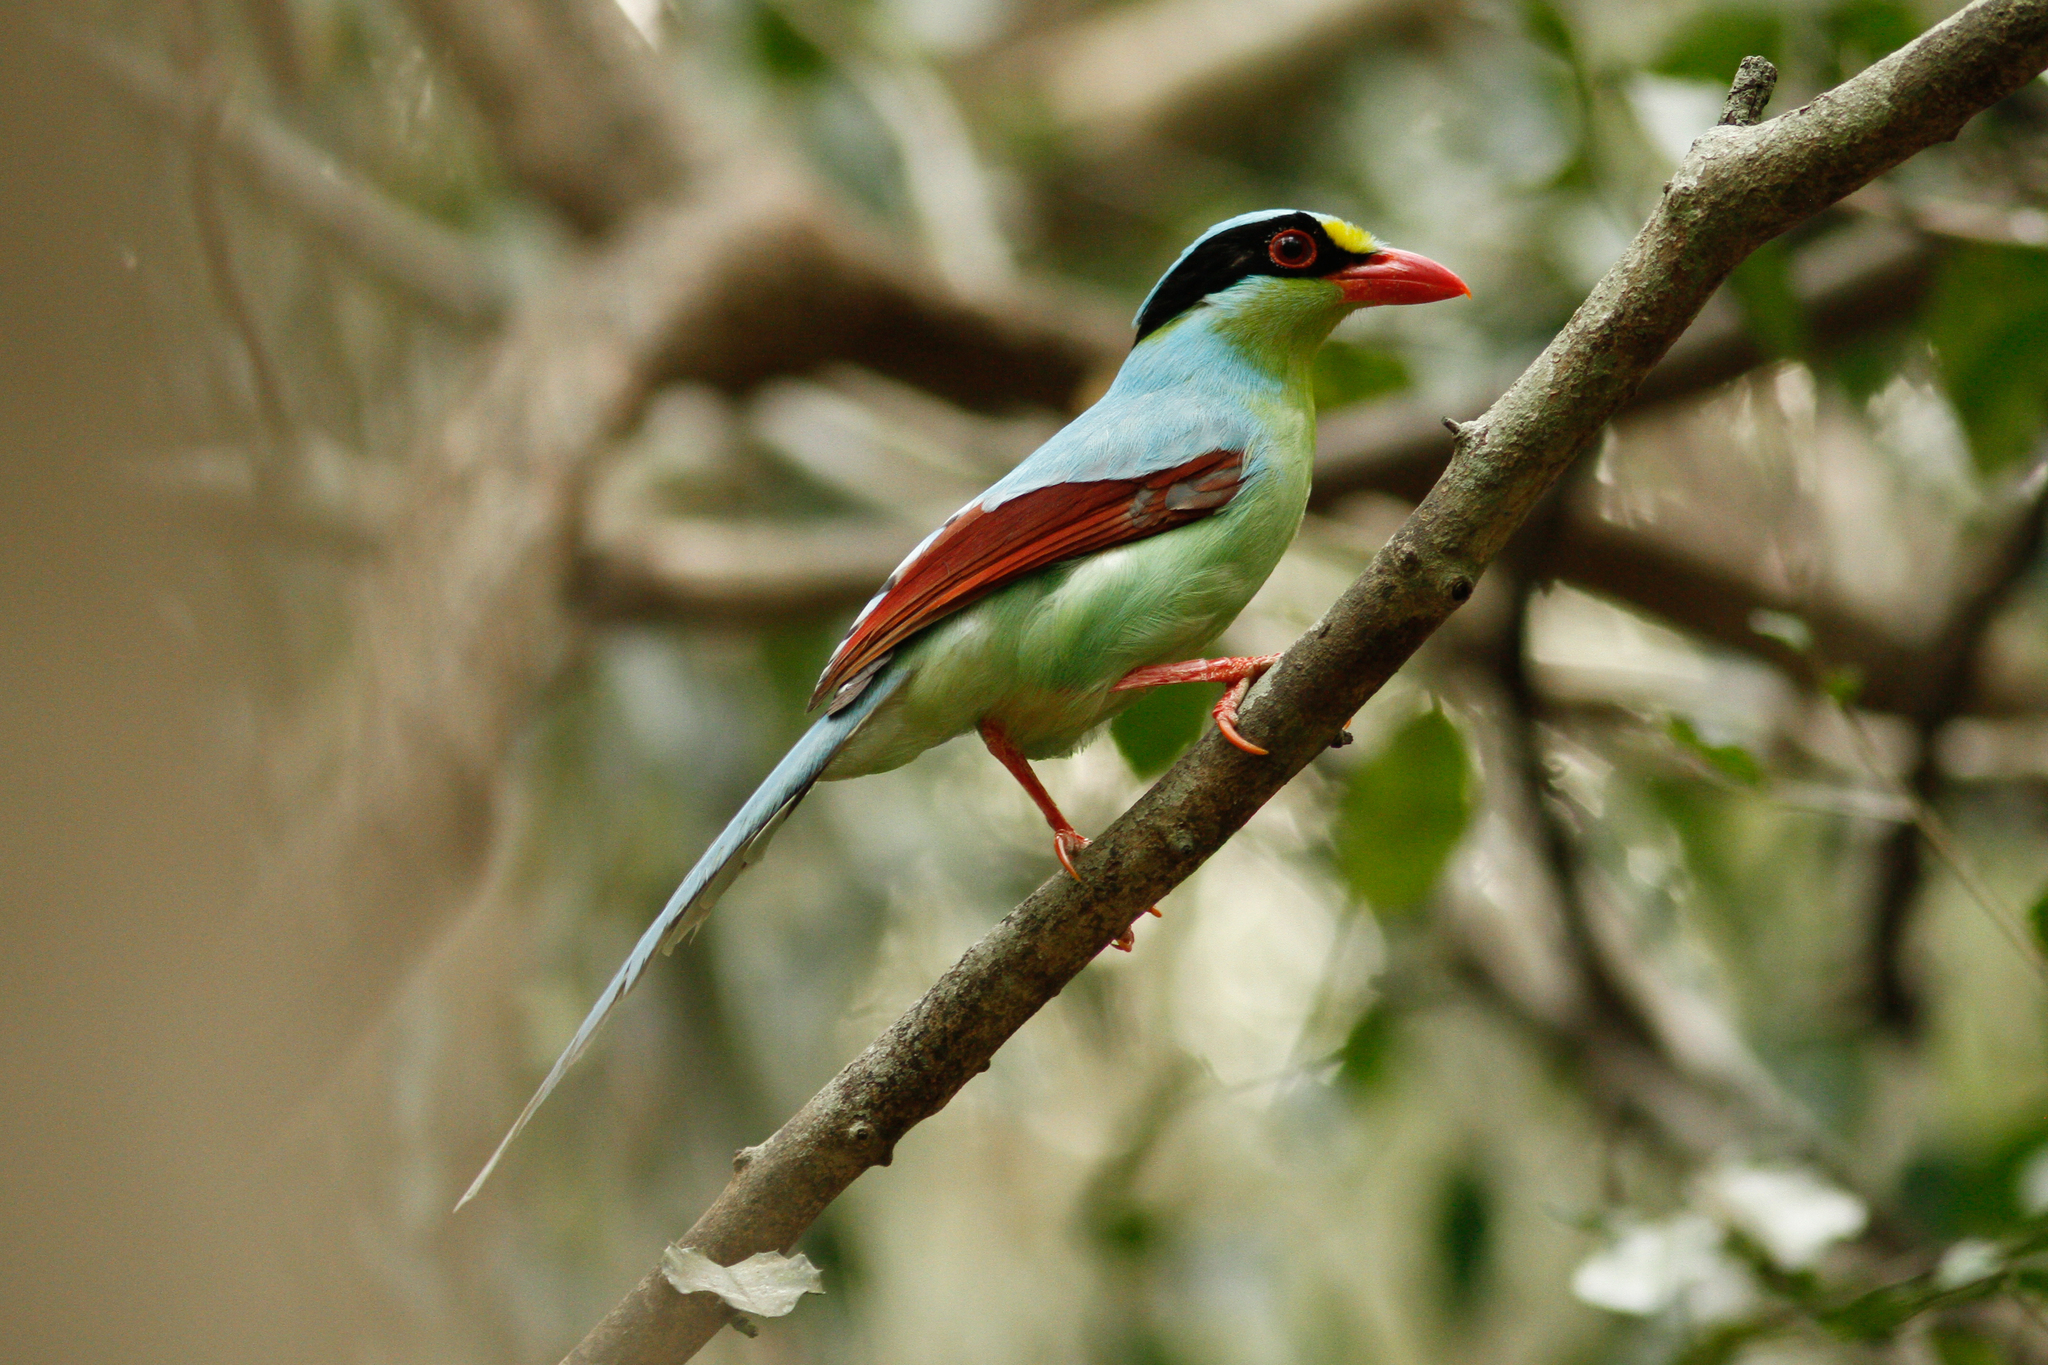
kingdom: Animalia
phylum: Chordata
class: Aves
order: Passeriformes
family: Corvidae
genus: Cissa
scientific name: Cissa chinensis
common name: Common green magpie
